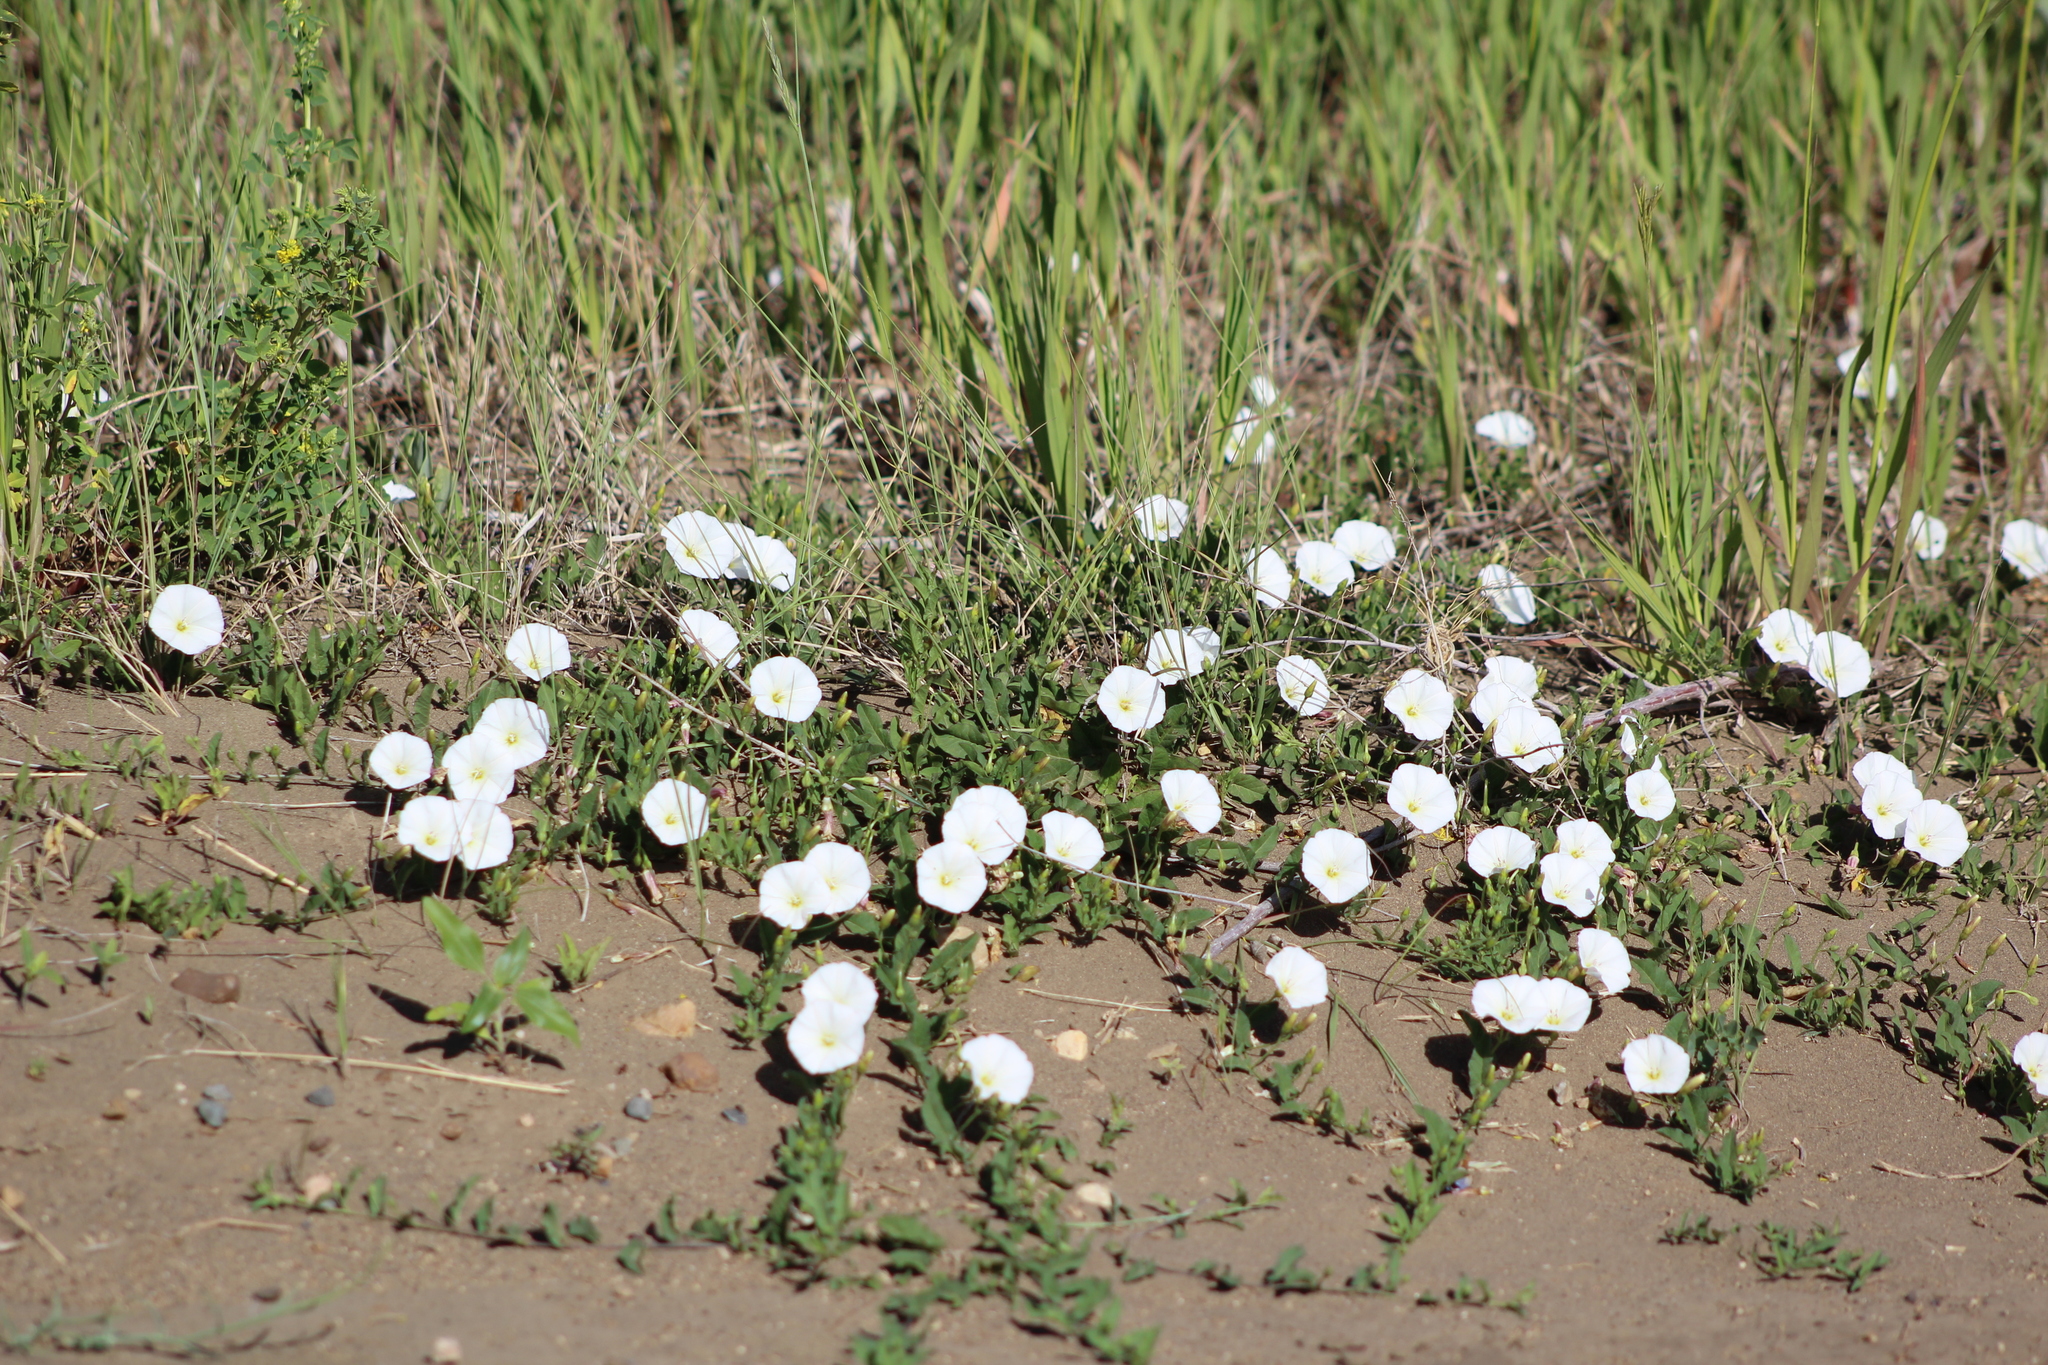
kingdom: Plantae
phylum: Tracheophyta
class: Magnoliopsida
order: Solanales
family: Convolvulaceae
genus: Convolvulus
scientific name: Convolvulus arvensis
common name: Field bindweed
